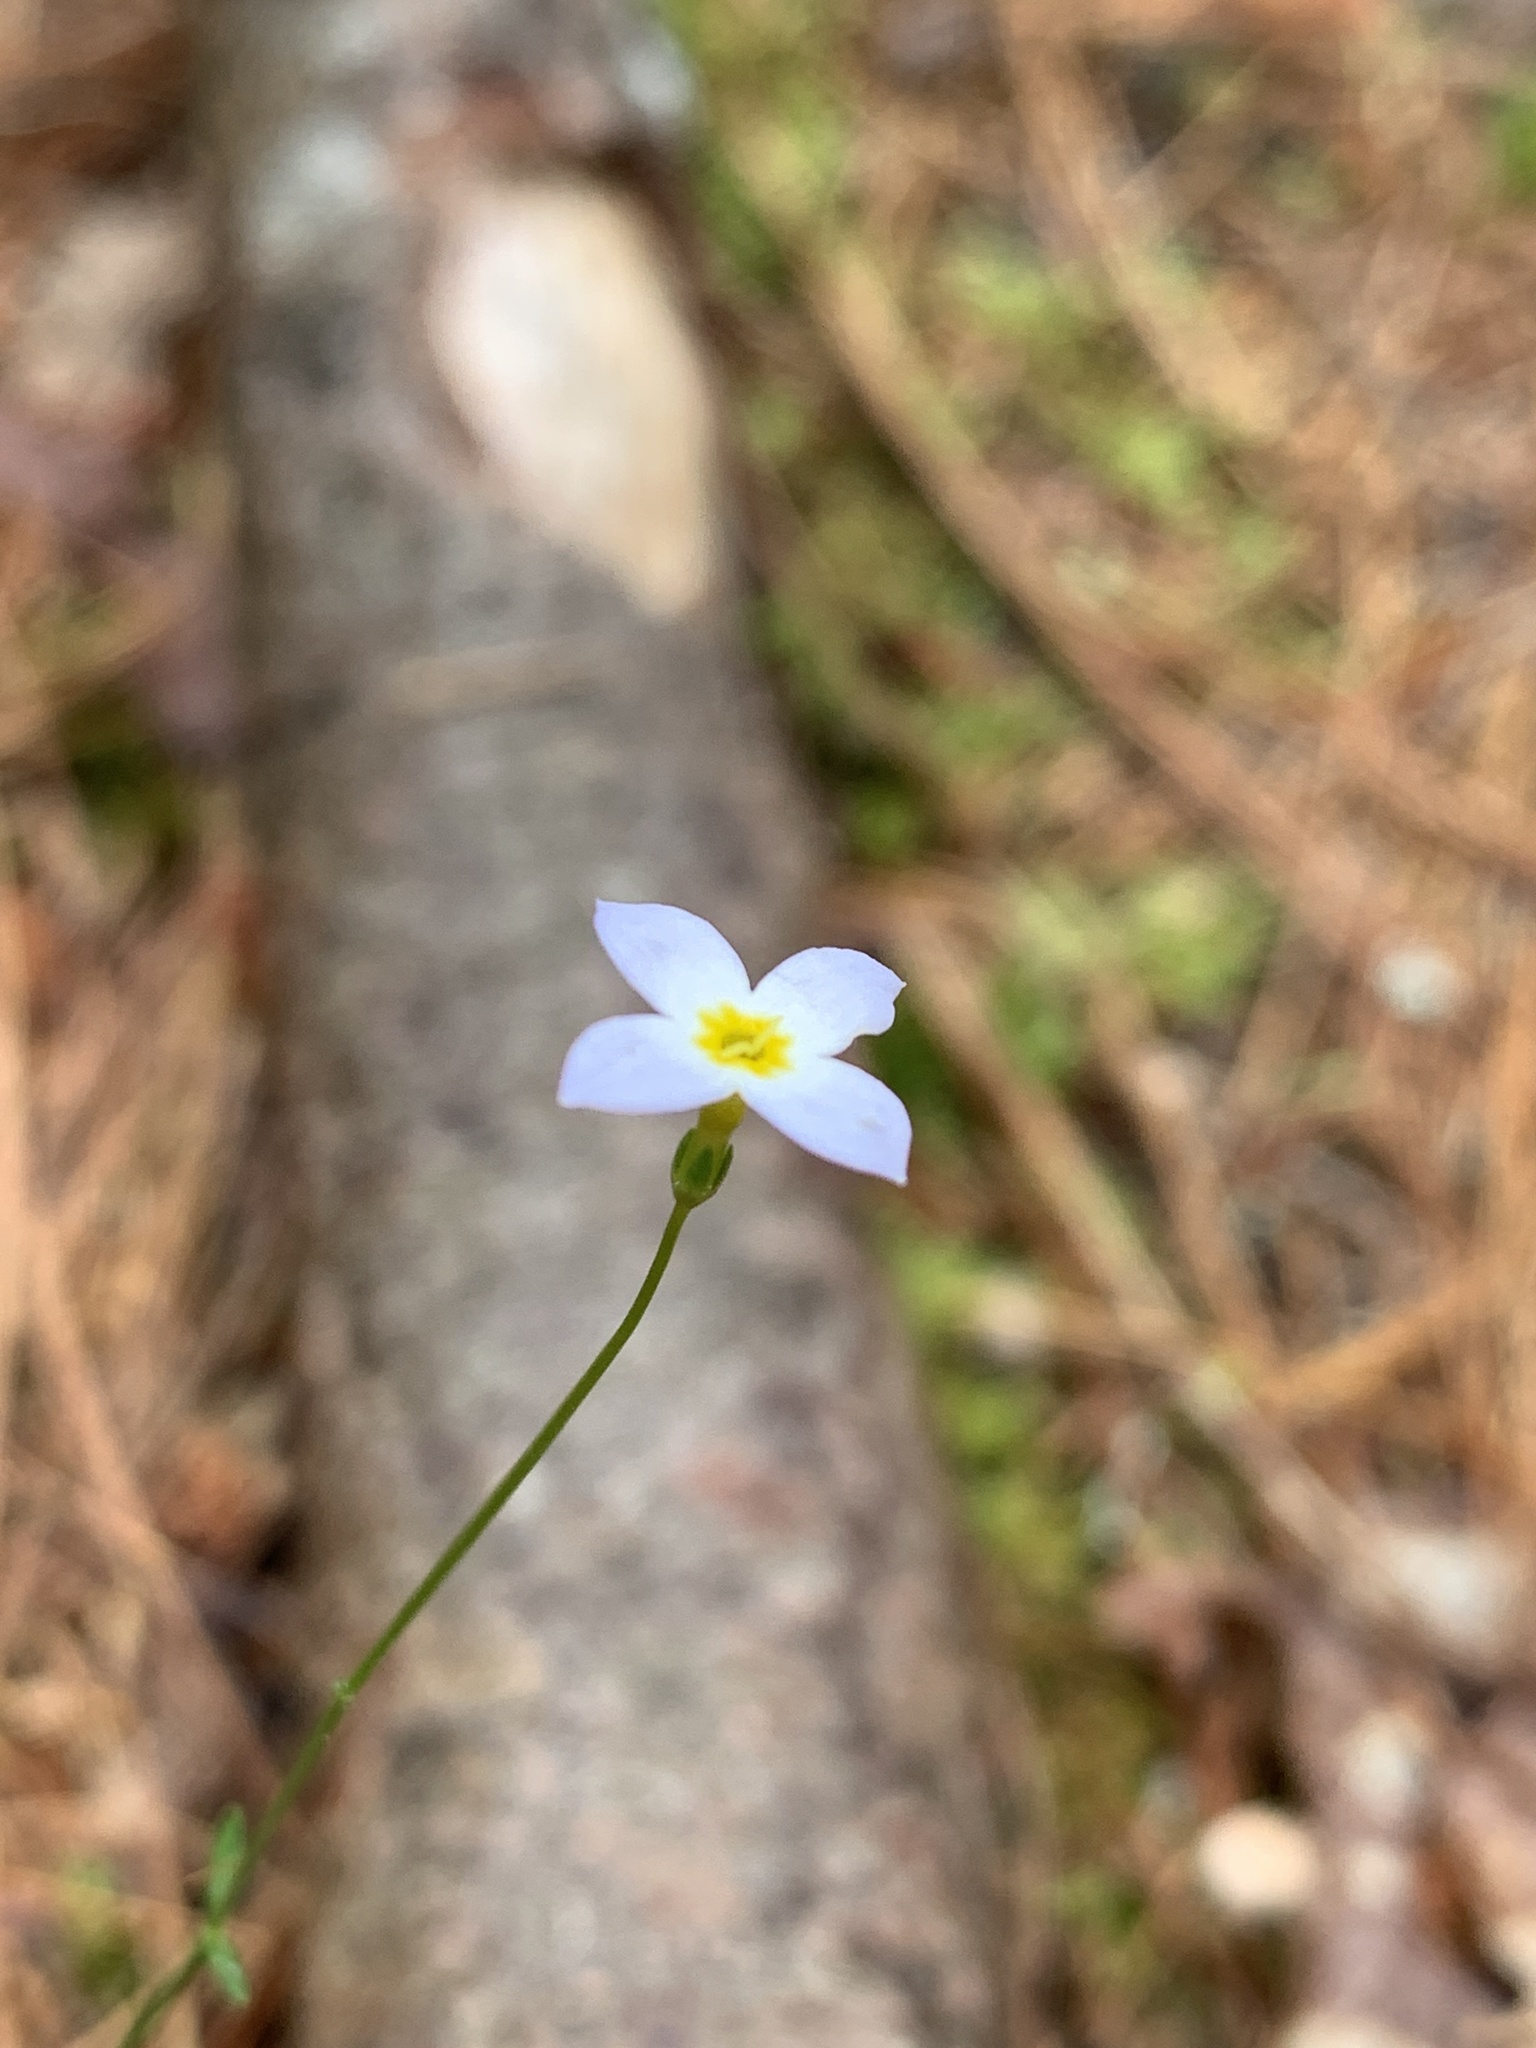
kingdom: Plantae
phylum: Tracheophyta
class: Magnoliopsida
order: Gentianales
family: Rubiaceae
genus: Houstonia
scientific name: Houstonia caerulea
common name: Bluets
